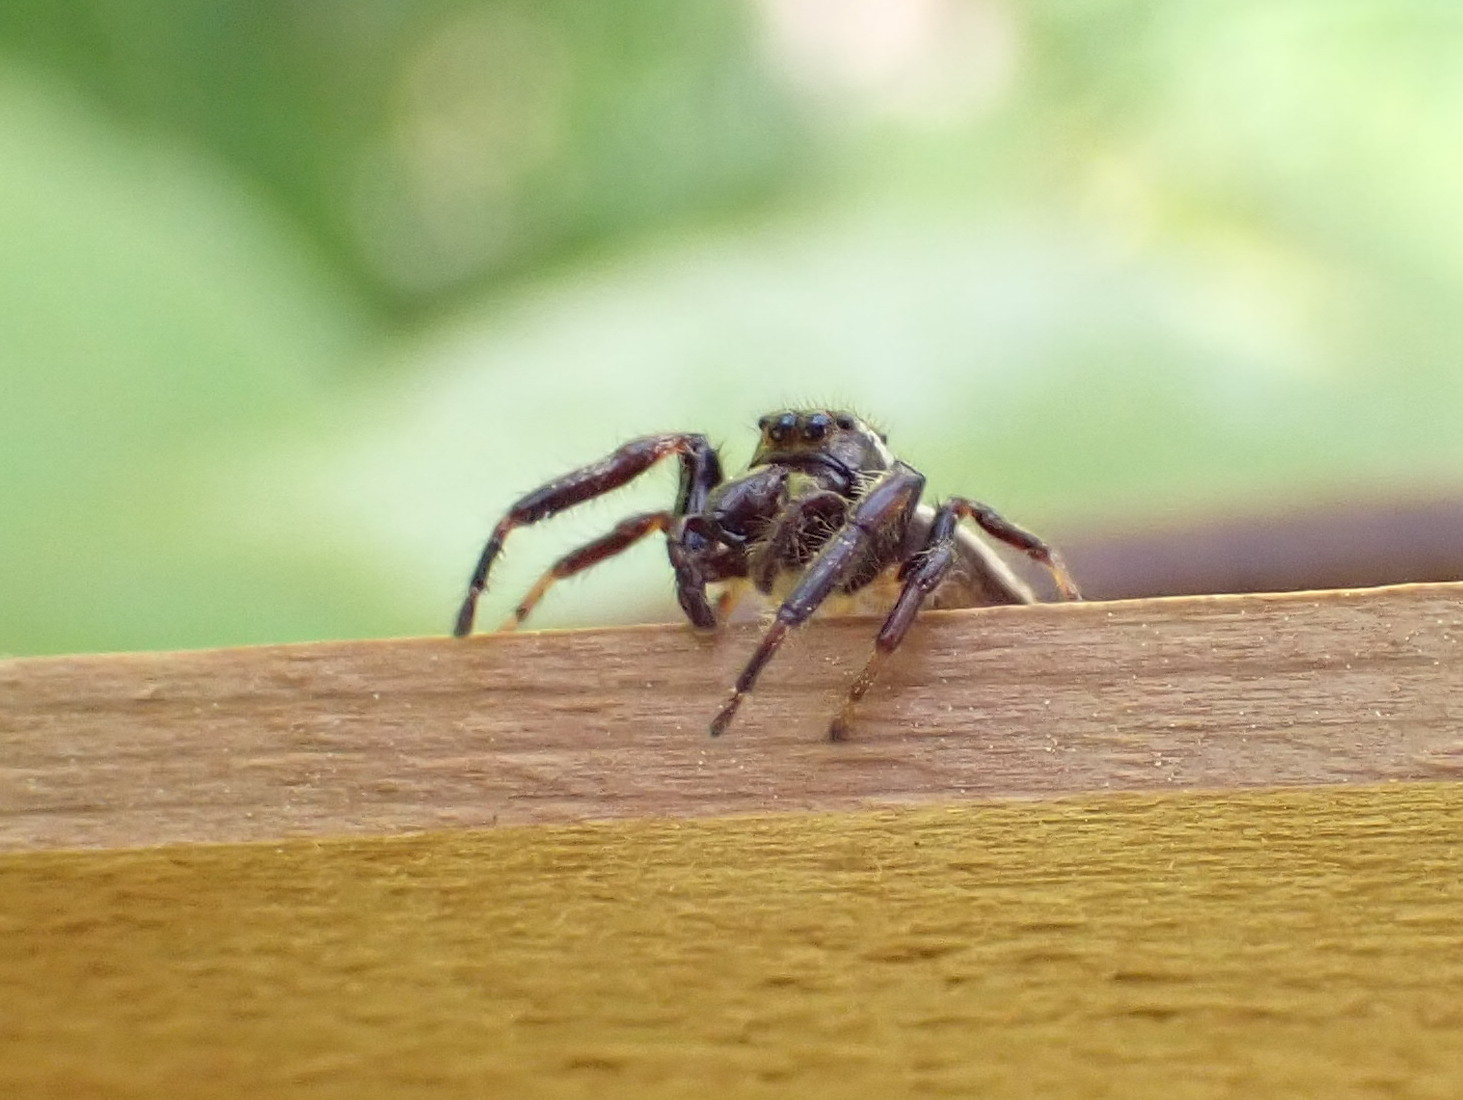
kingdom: Animalia
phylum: Arthropoda
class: Arachnida
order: Araneae
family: Salticidae
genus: Eris
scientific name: Eris militaris
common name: Bronze jumper
